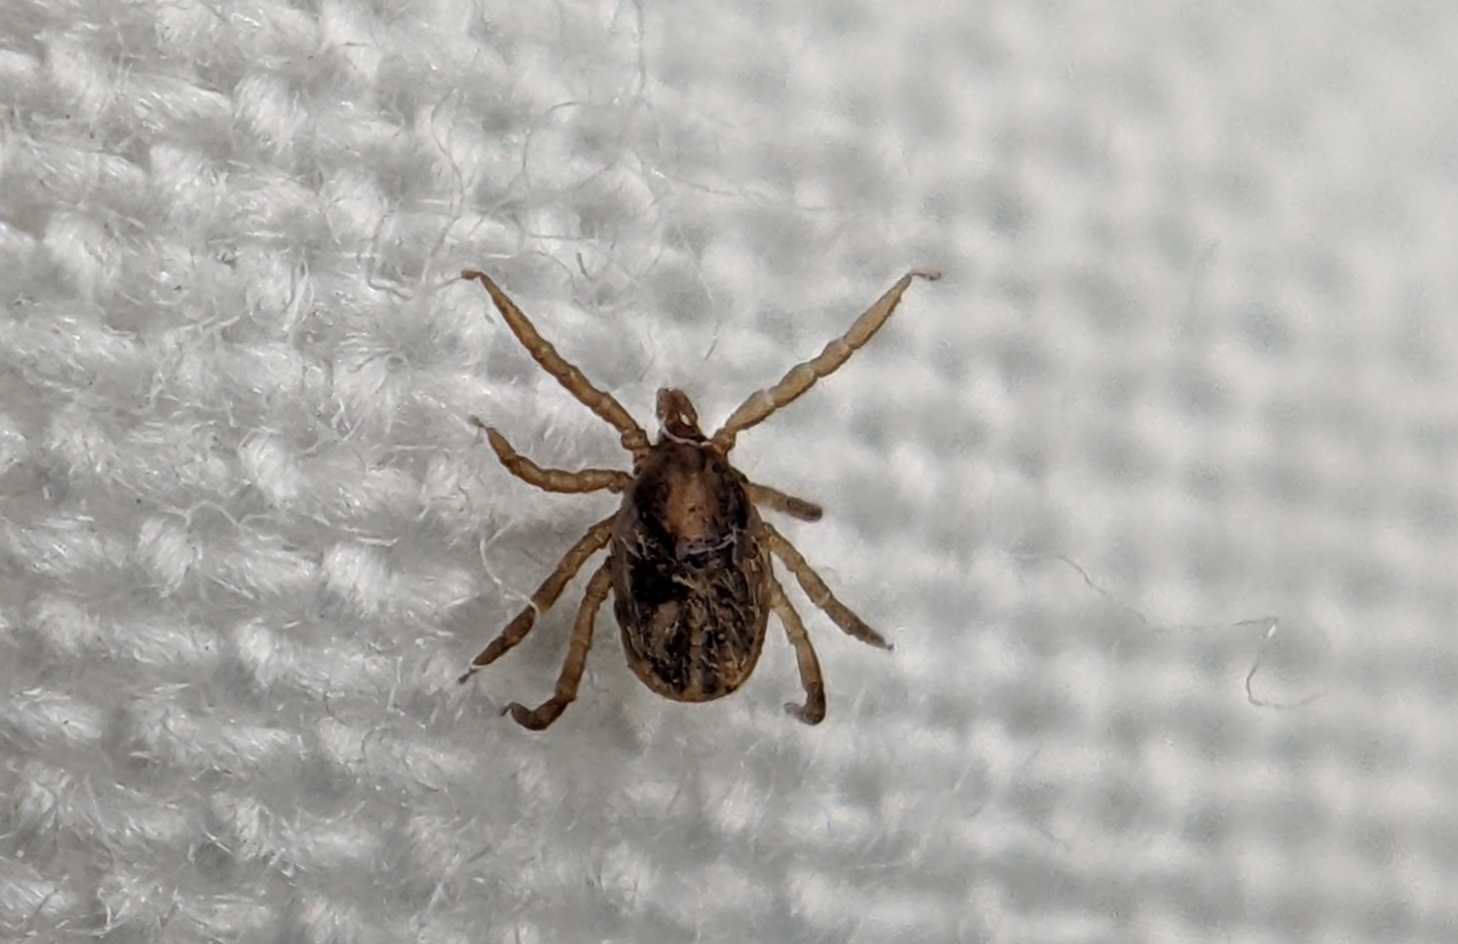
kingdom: Animalia
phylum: Arthropoda
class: Arachnida
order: Ixodida
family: Ixodidae
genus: Ixodes
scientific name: Ixodes frontalis
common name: Passerine tick
